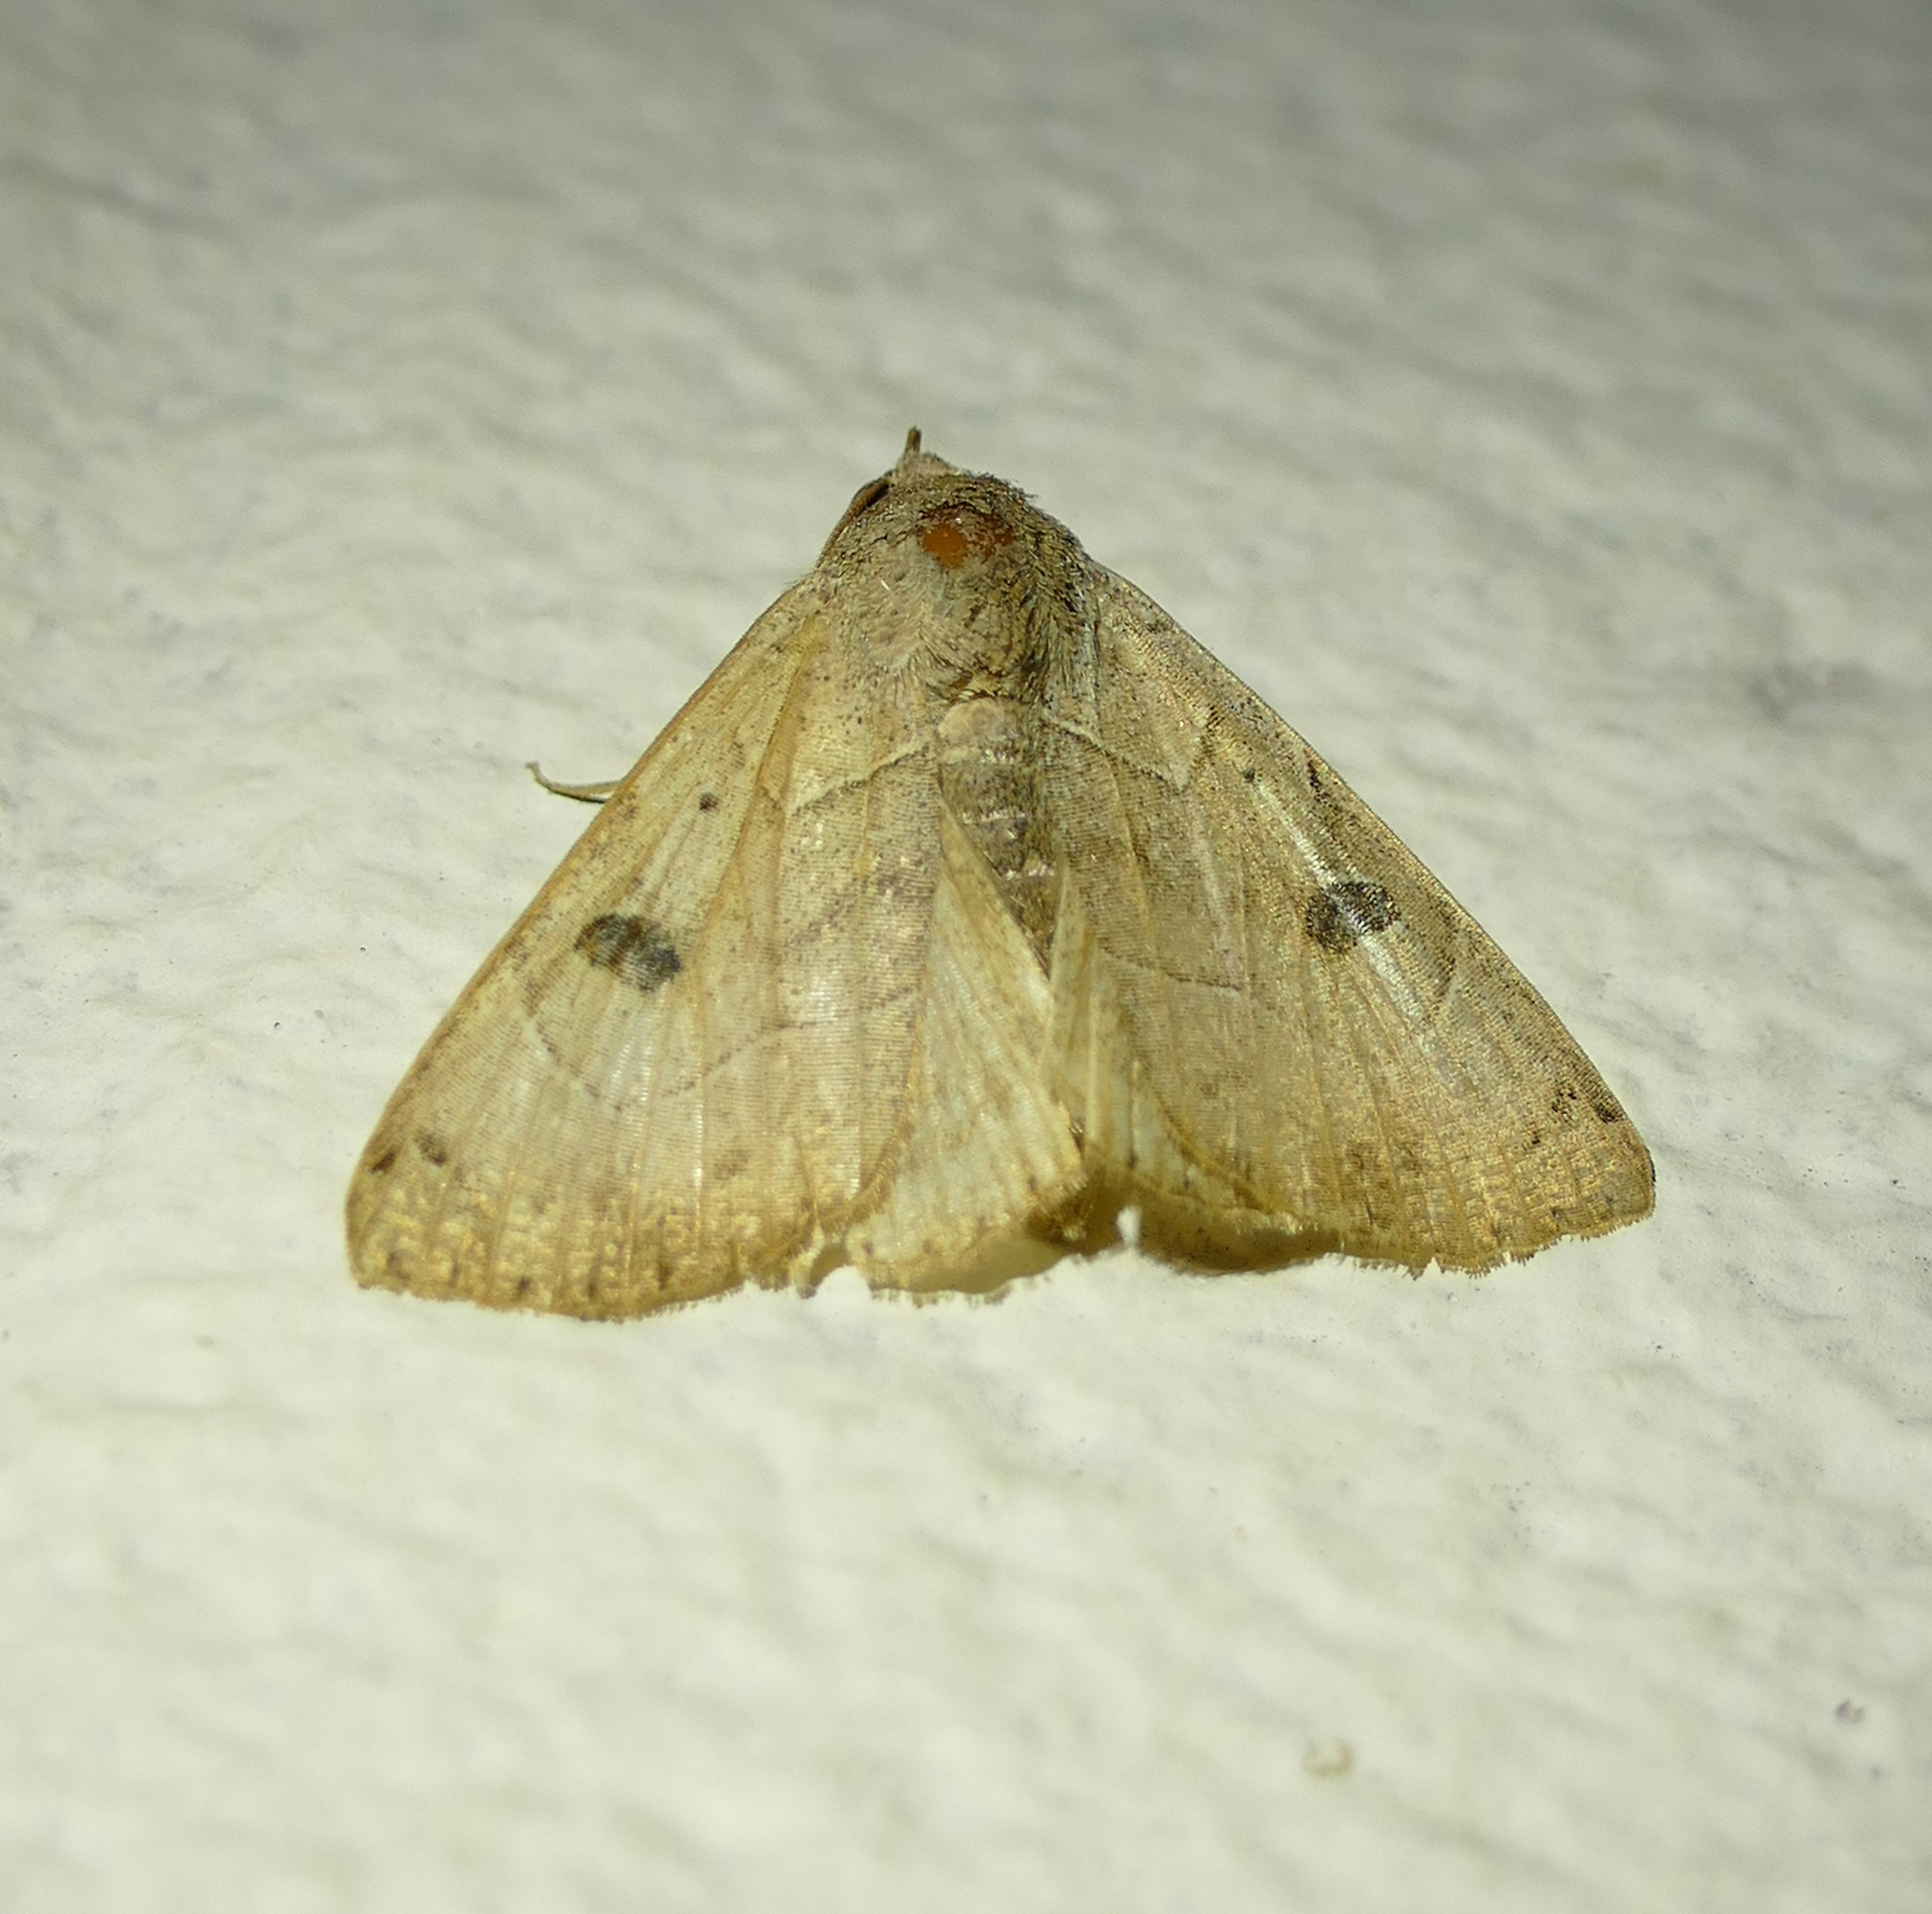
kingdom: Animalia
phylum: Arthropoda
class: Insecta
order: Lepidoptera
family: Erebidae
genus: Isogona
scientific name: Isogona scindens
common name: Owlet moth
